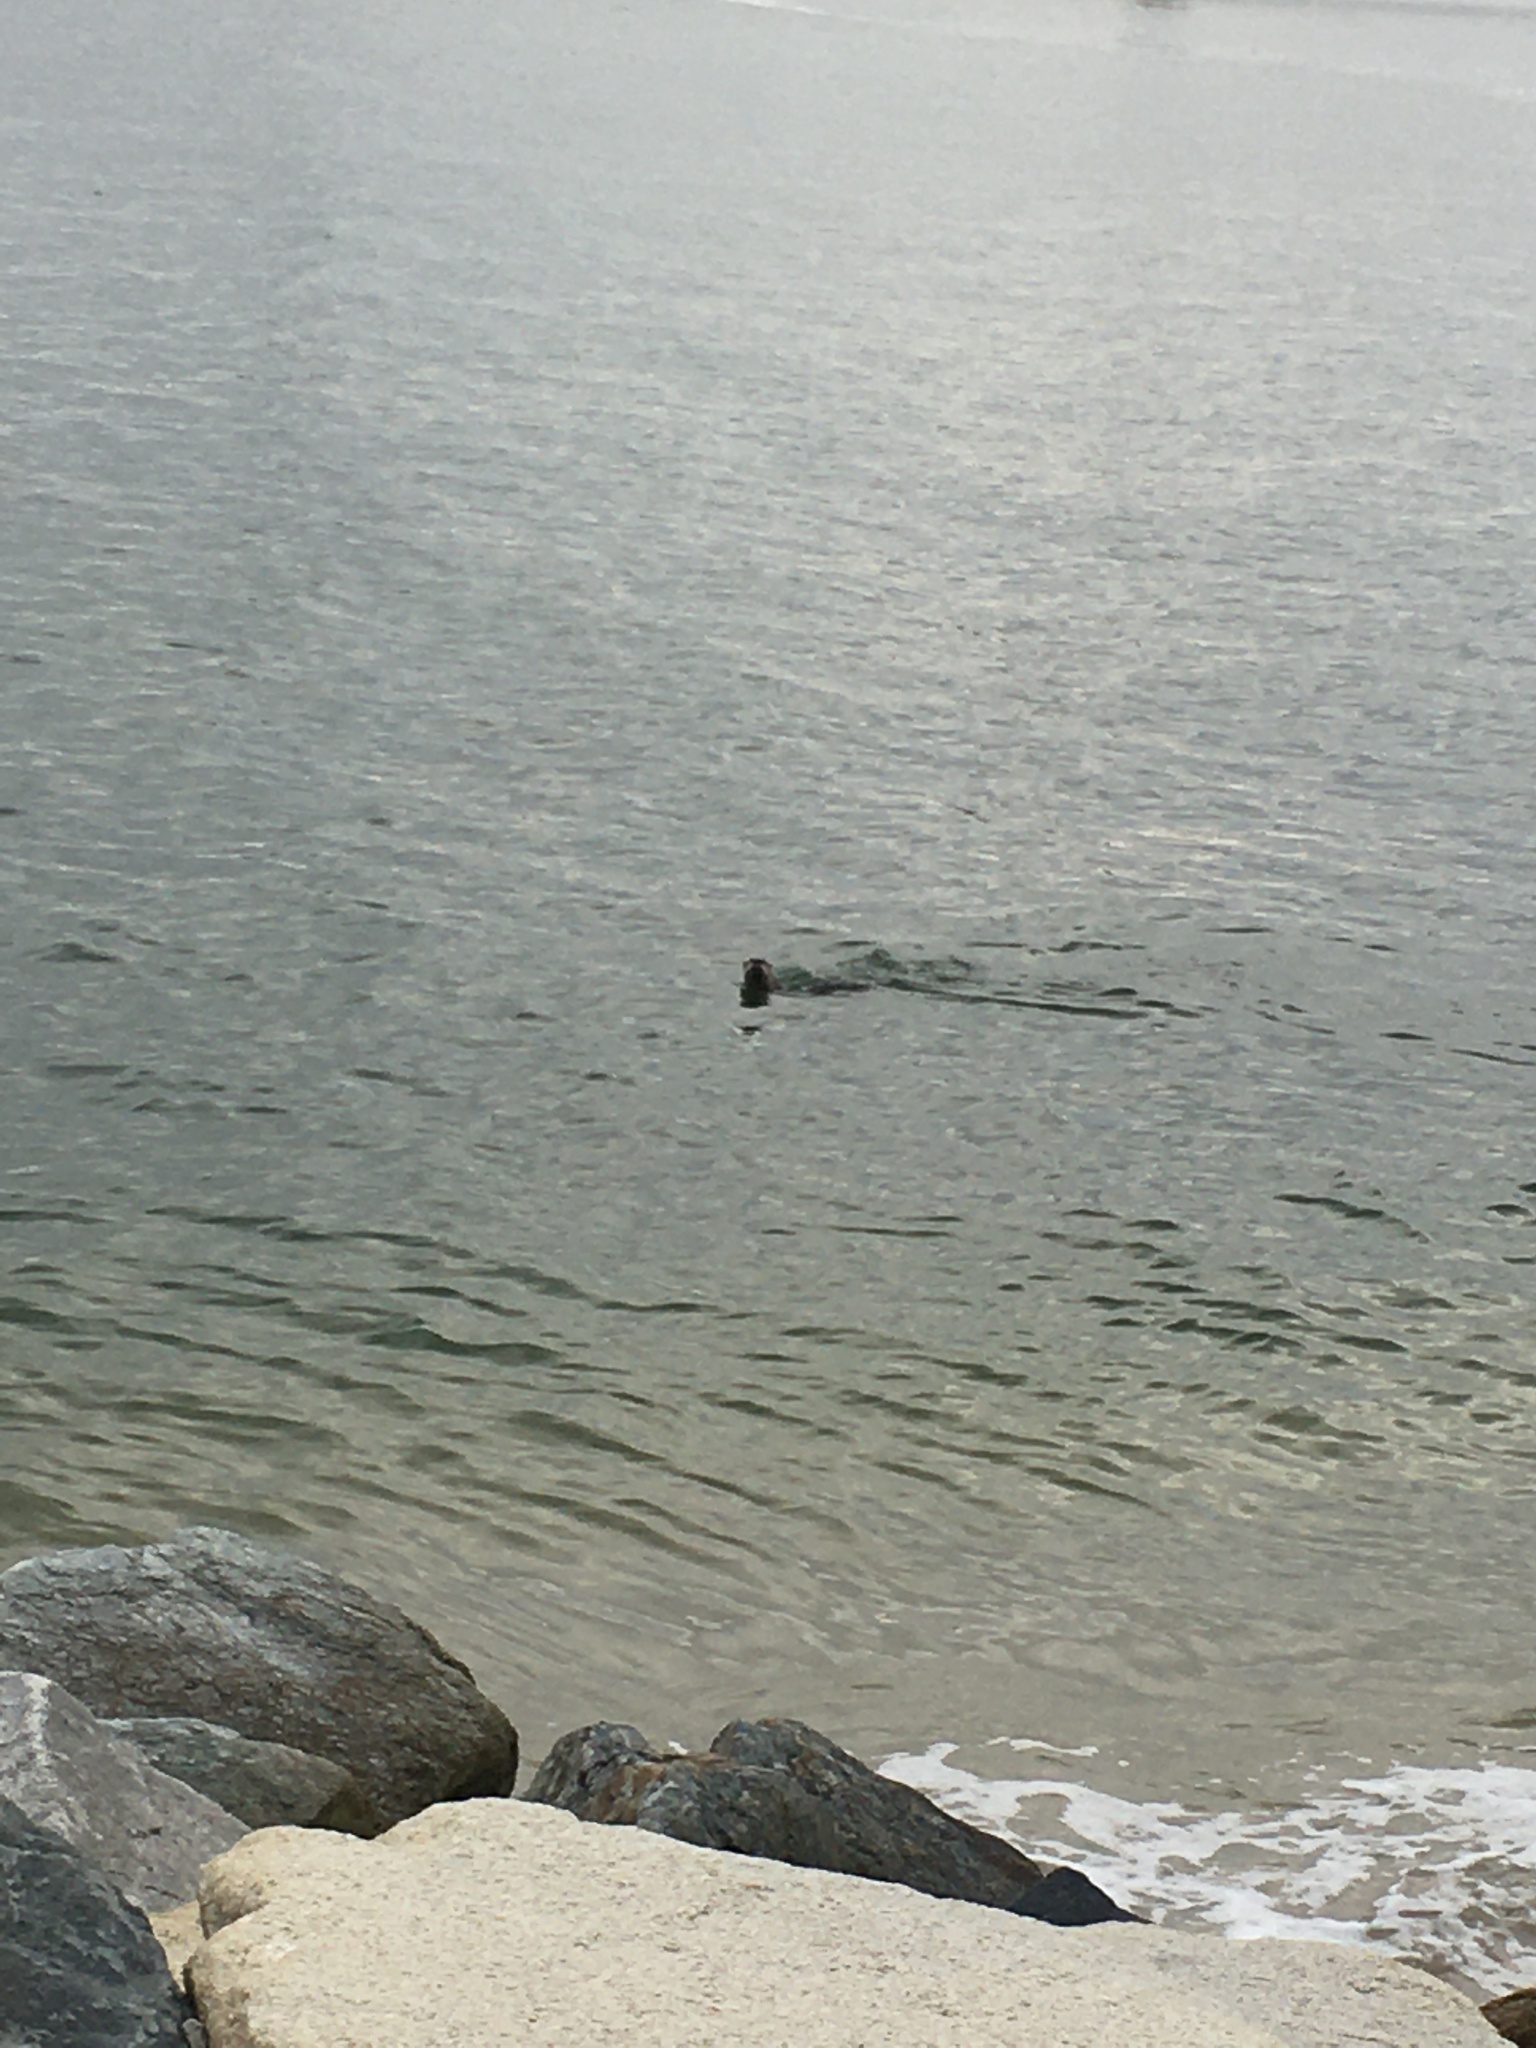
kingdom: Animalia
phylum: Chordata
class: Mammalia
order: Carnivora
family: Mustelidae
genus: Lontra
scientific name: Lontra canadensis
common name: North american river otter
